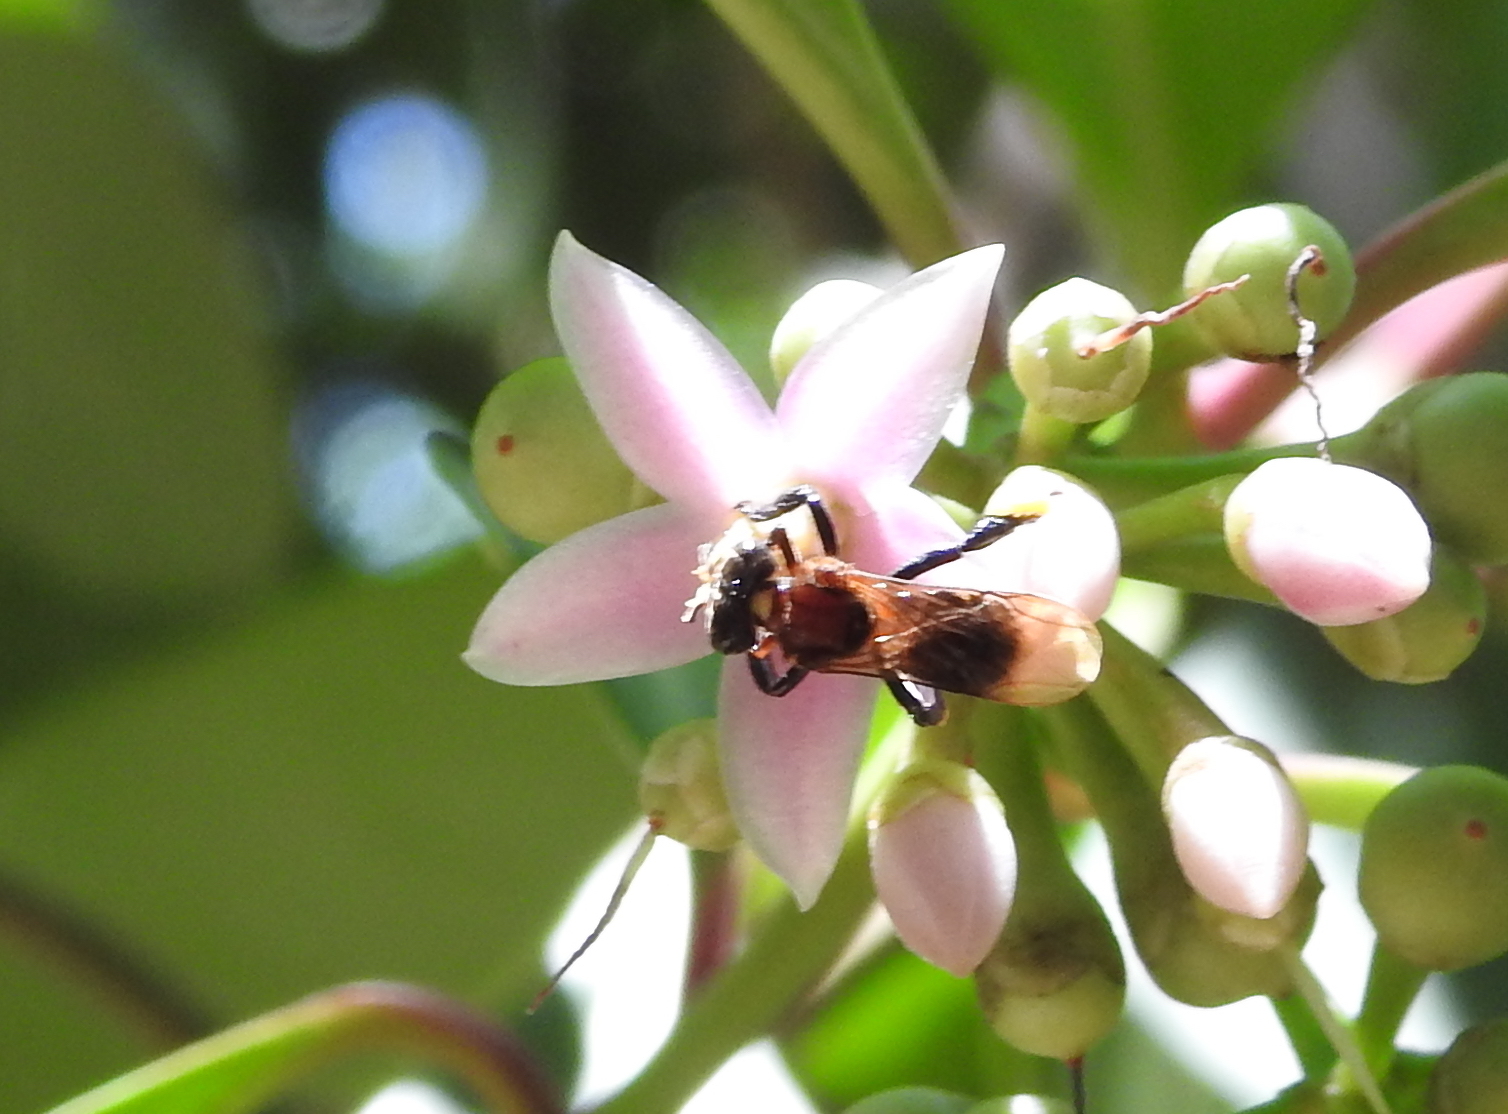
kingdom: Animalia
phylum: Arthropoda
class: Insecta
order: Hymenoptera
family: Apidae
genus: Geniotrigona
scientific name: Geniotrigona thoracica
